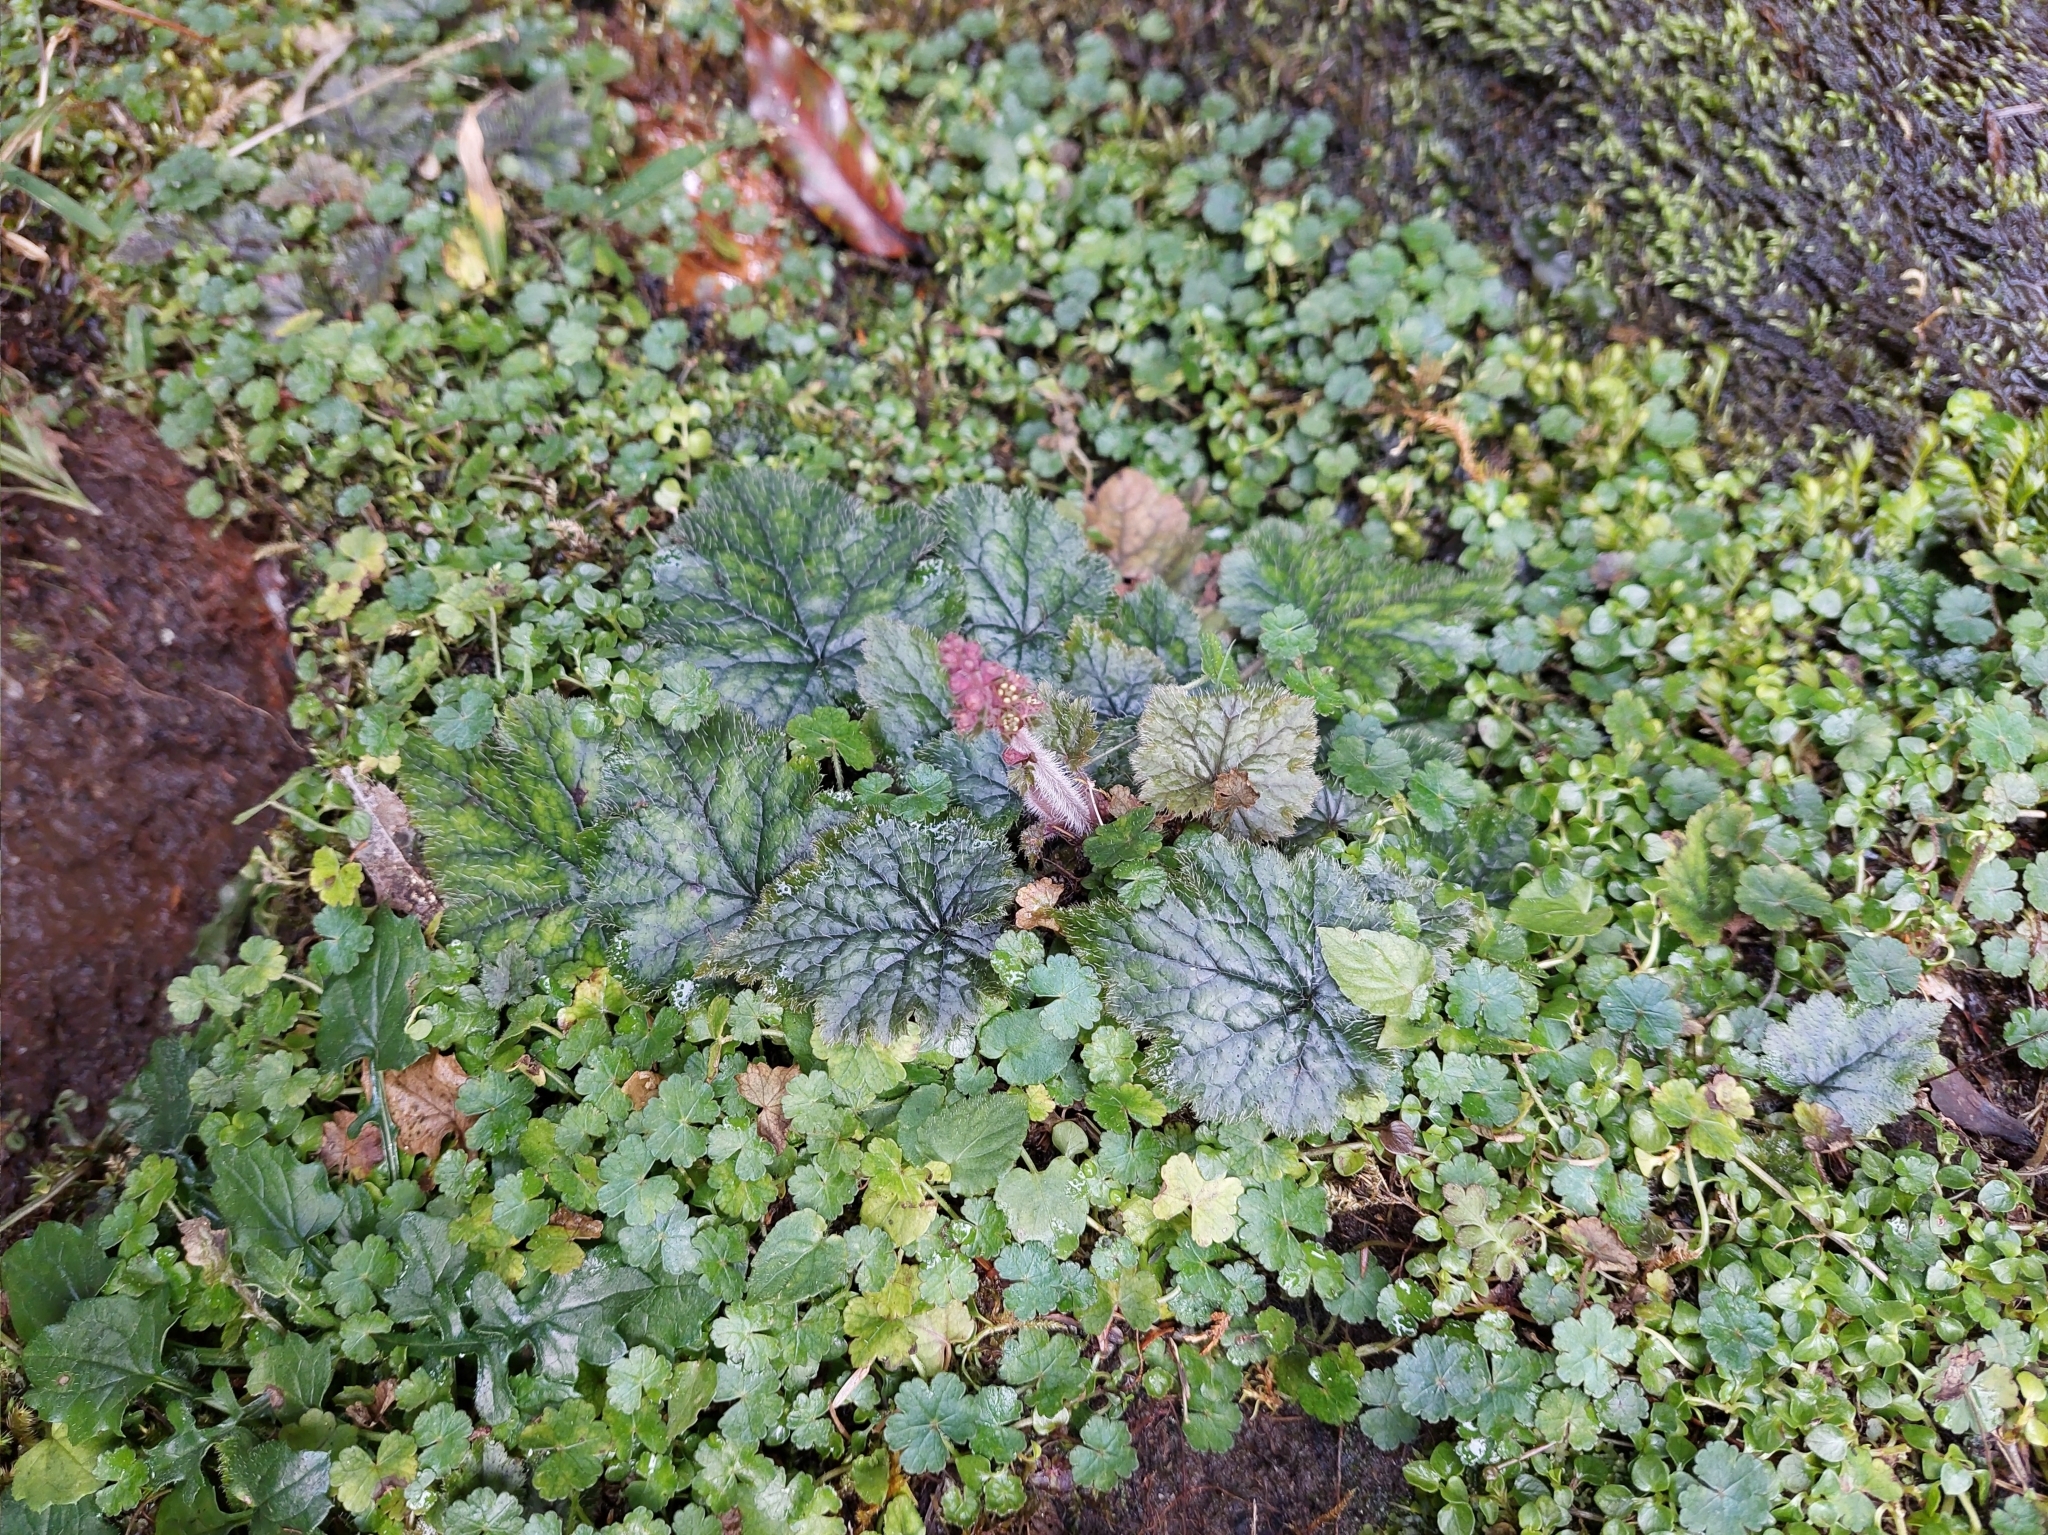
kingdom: Plantae
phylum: Tracheophyta
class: Magnoliopsida
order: Saxifragales
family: Saxifragaceae
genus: Asimitellaria
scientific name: Asimitellaria formosana
